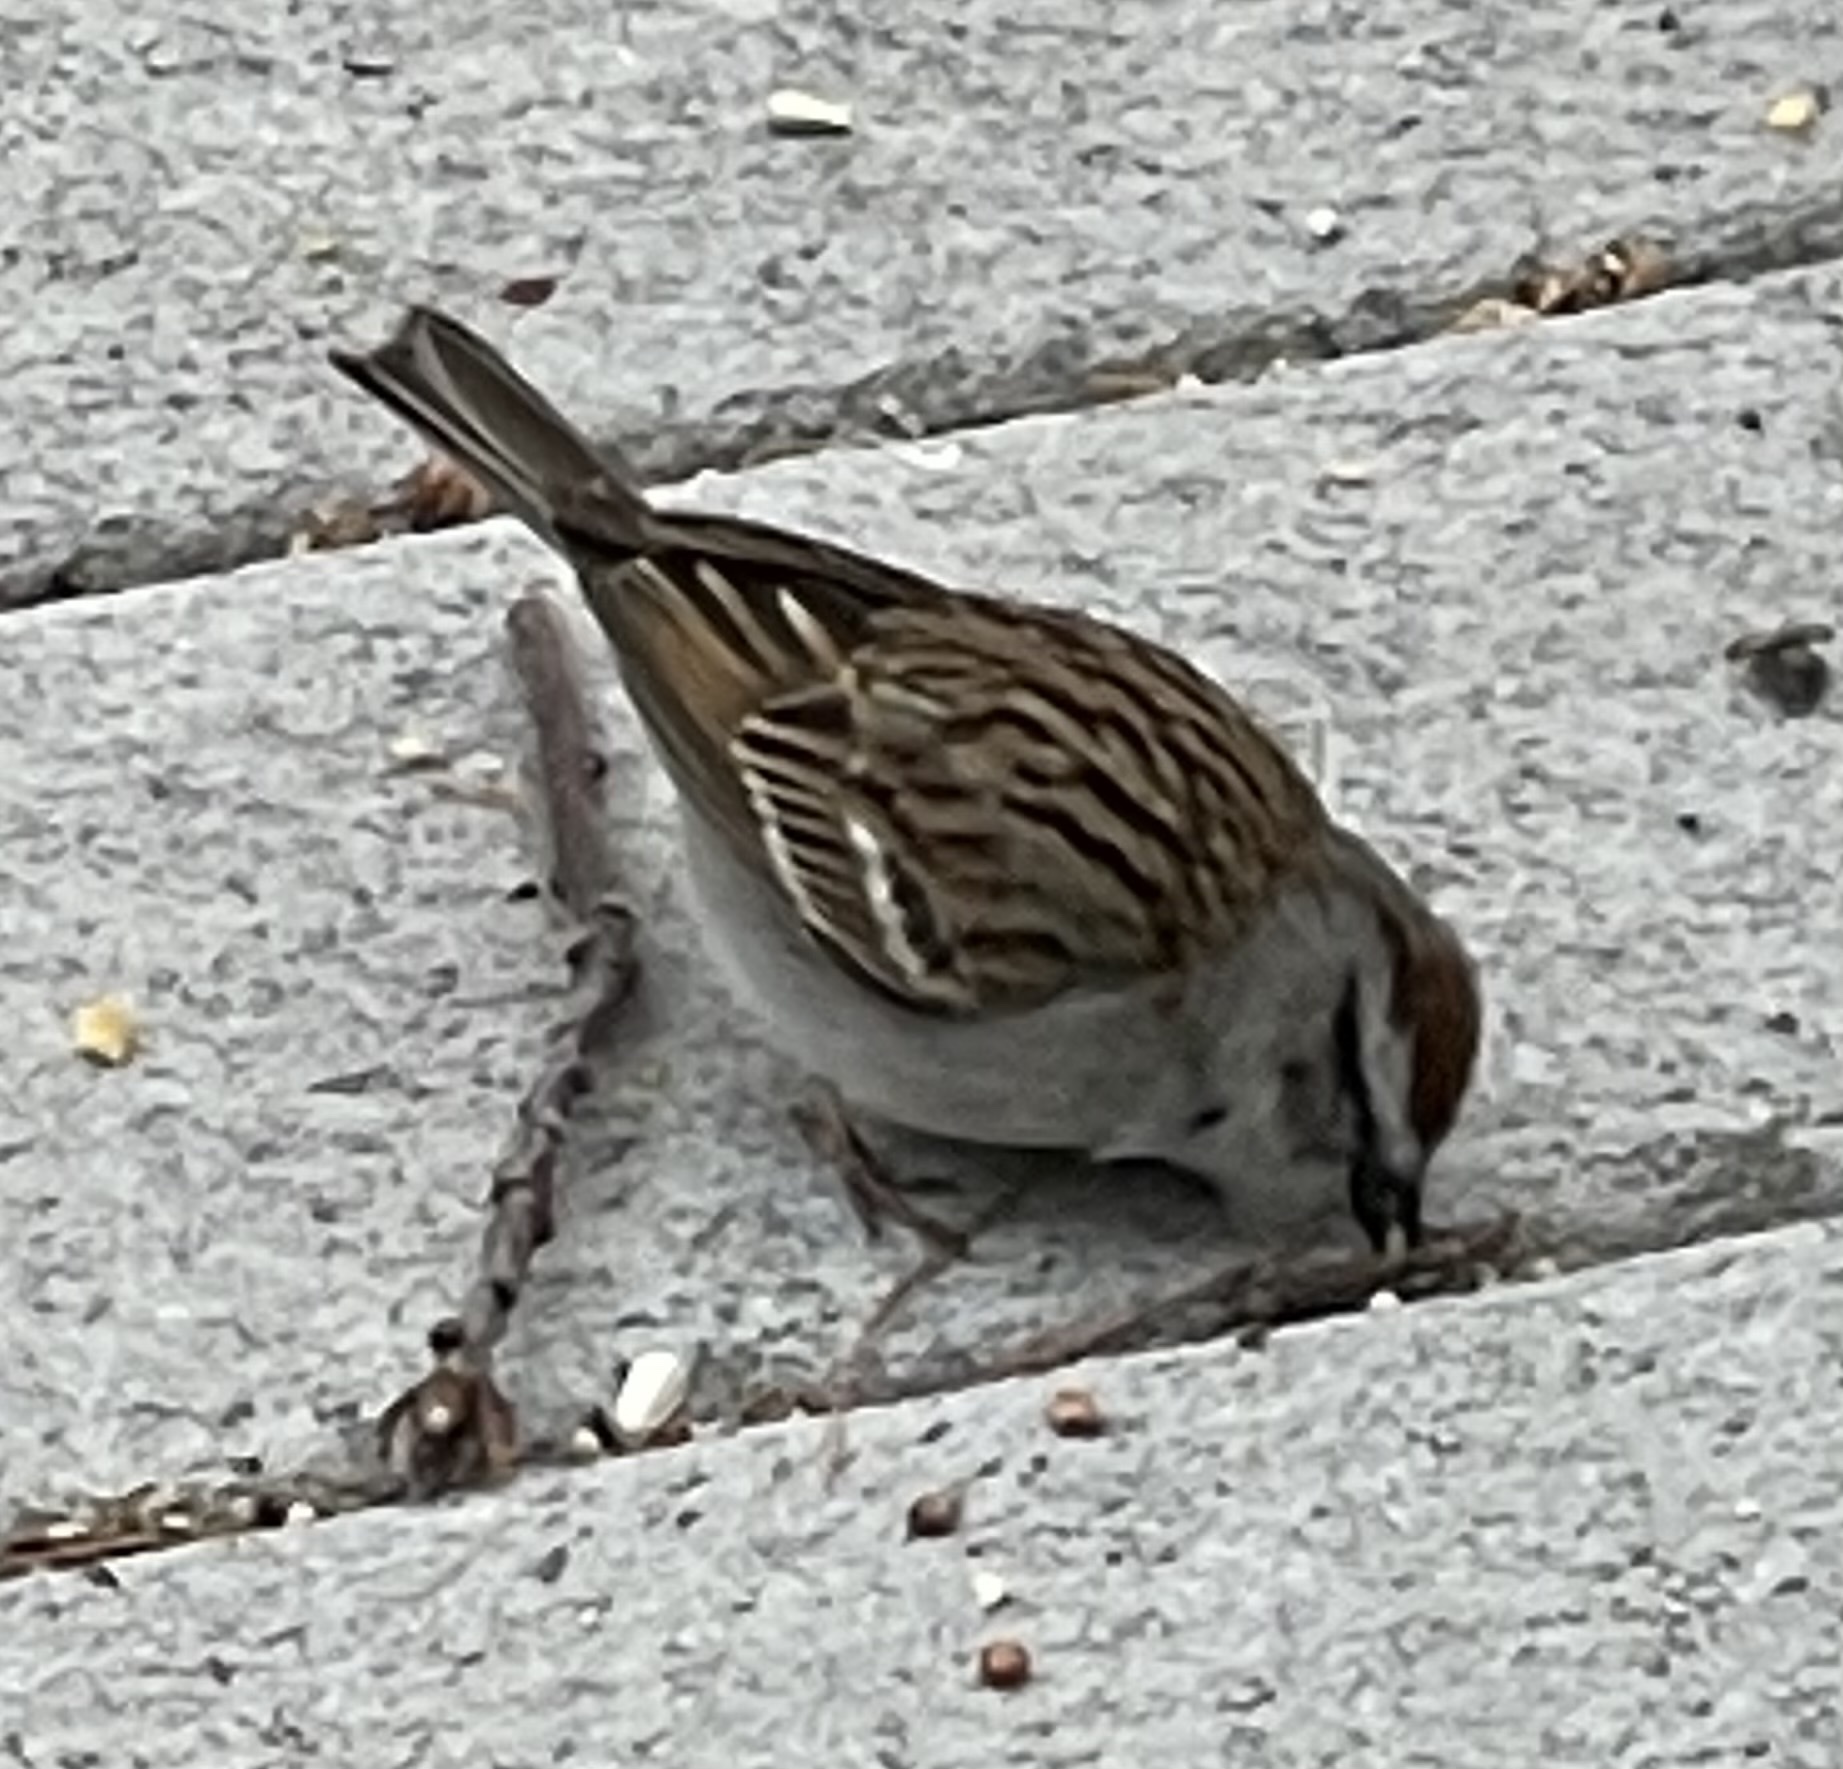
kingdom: Animalia
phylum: Chordata
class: Aves
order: Passeriformes
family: Passerellidae
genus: Spizella
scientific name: Spizella passerina
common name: Chipping sparrow
